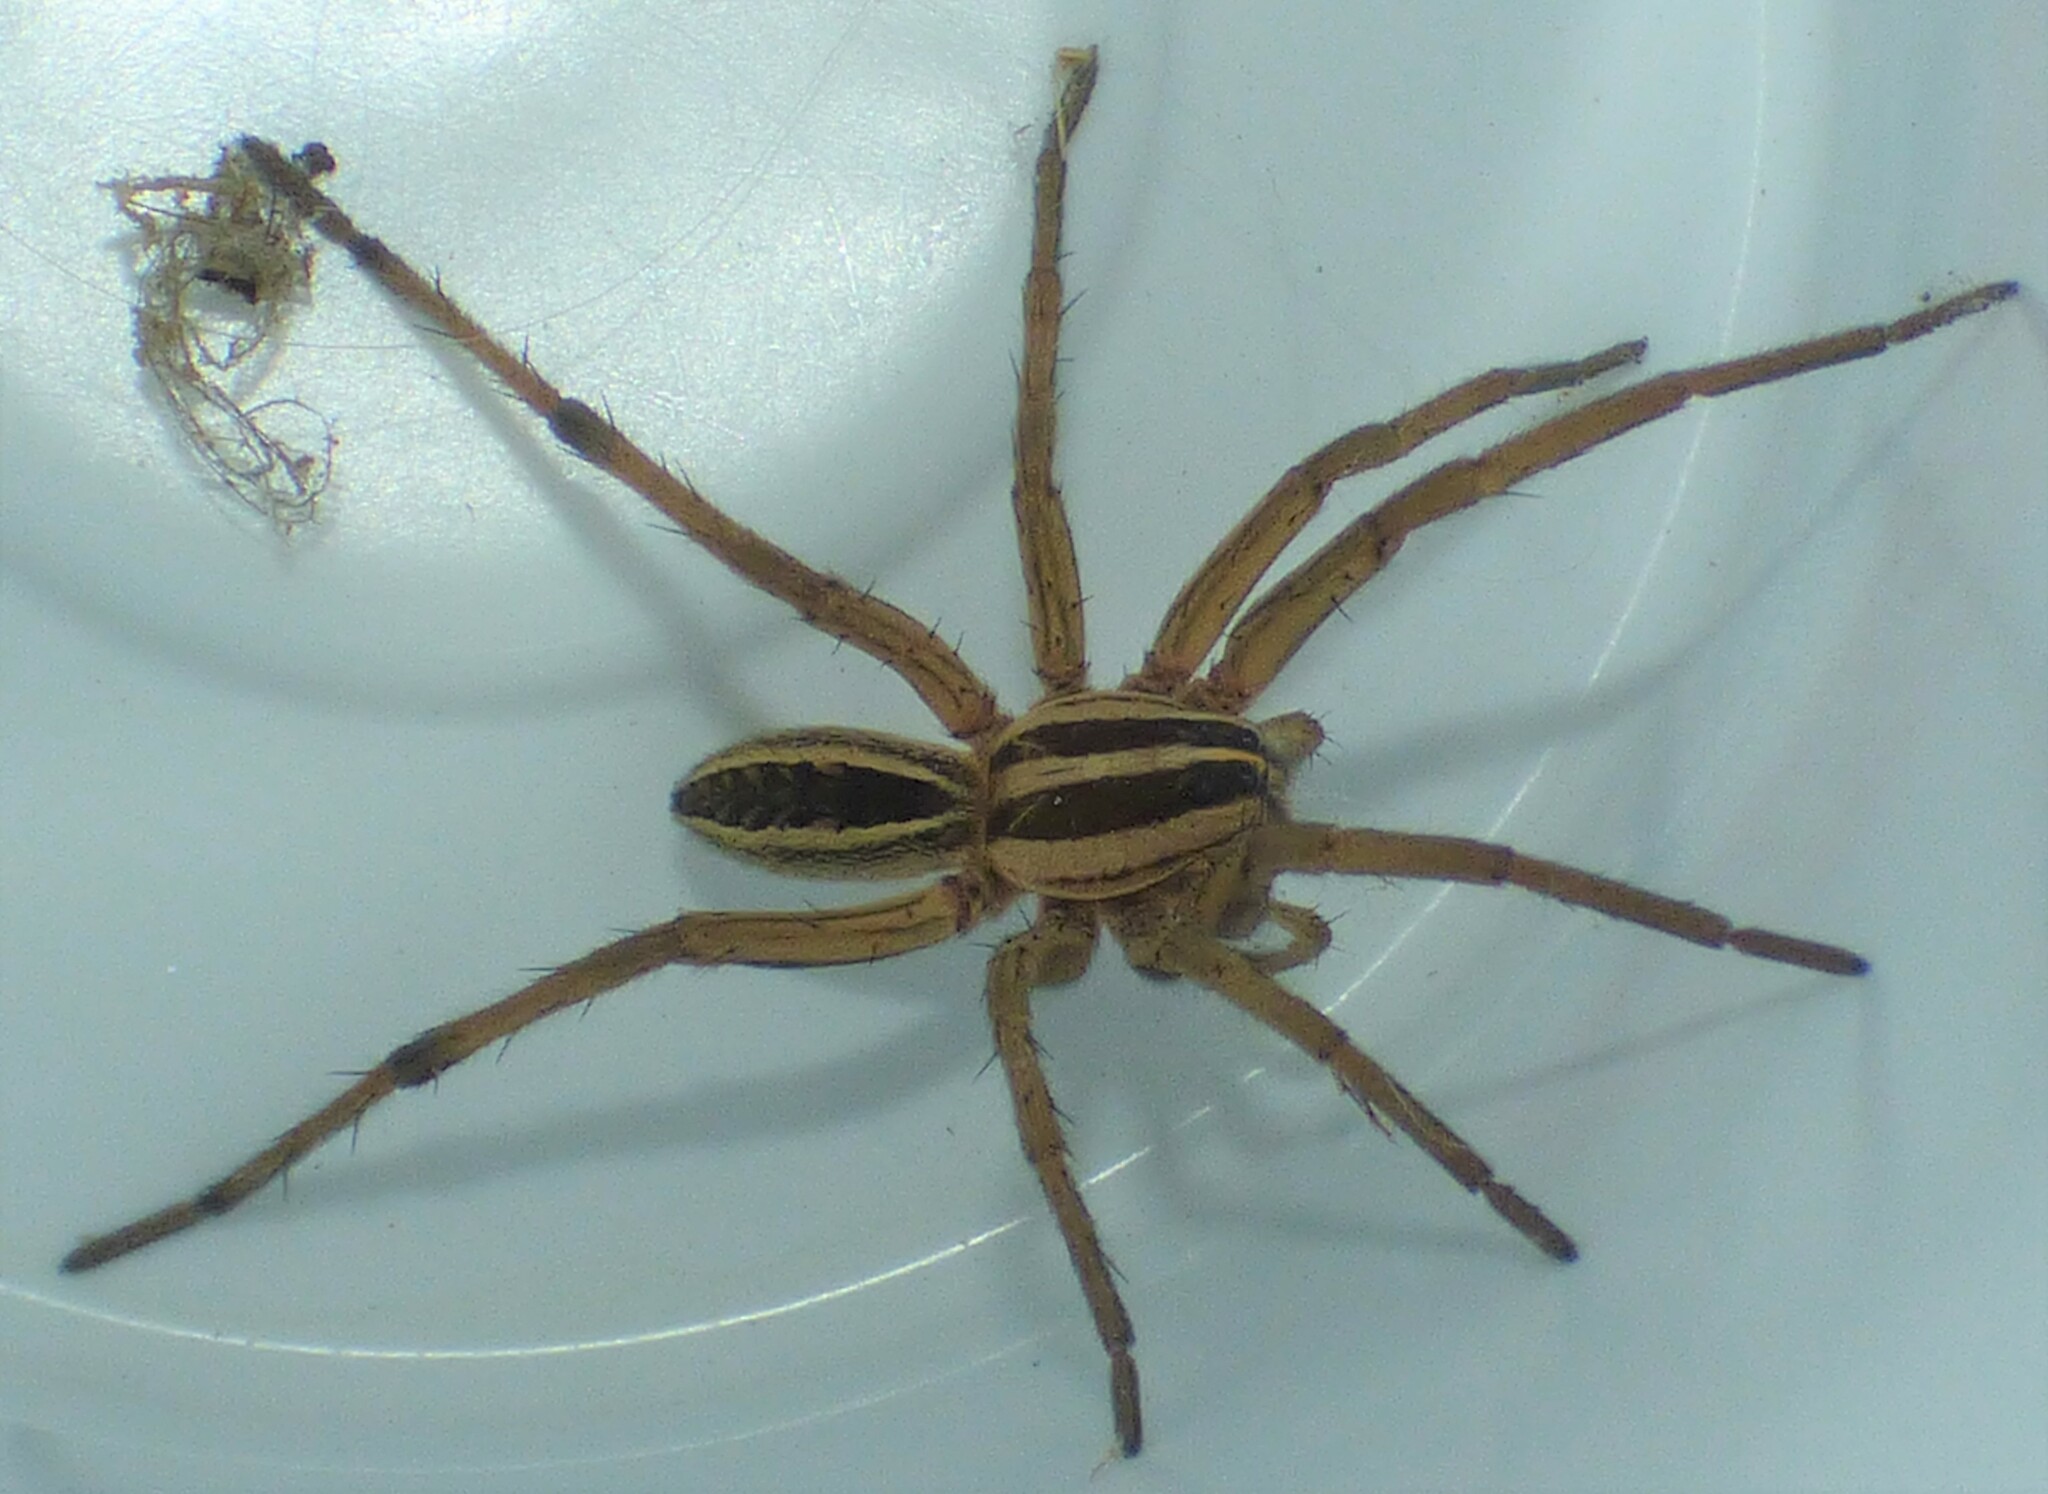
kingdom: Animalia
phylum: Arthropoda
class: Arachnida
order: Araneae
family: Lycosidae
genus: Rabidosa
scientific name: Rabidosa rabida
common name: Rabid wolf spider
